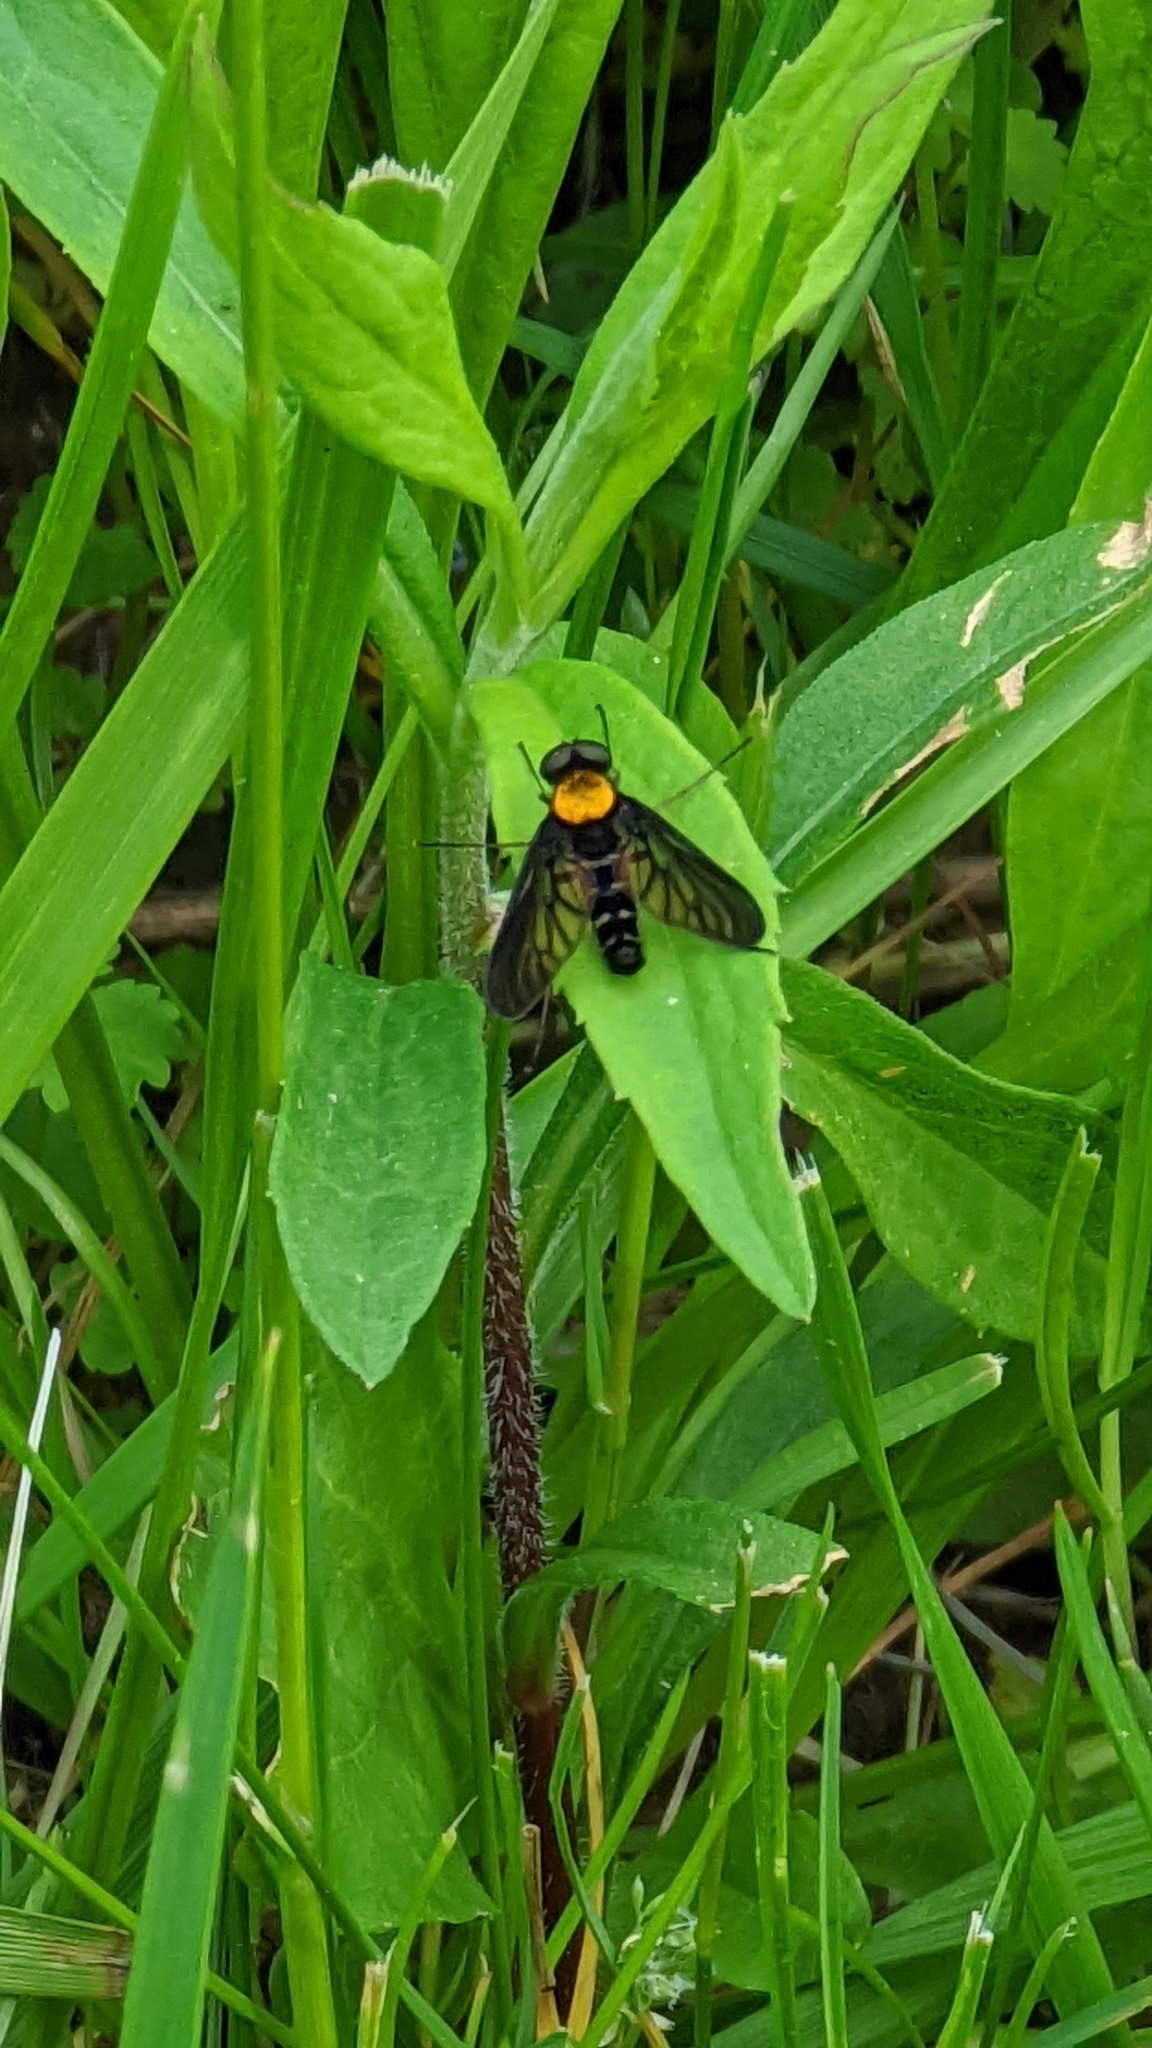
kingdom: Animalia
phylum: Arthropoda
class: Insecta
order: Diptera
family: Rhagionidae
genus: Chrysopilus
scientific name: Chrysopilus thoracicus
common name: Golden-backed snipe fly
